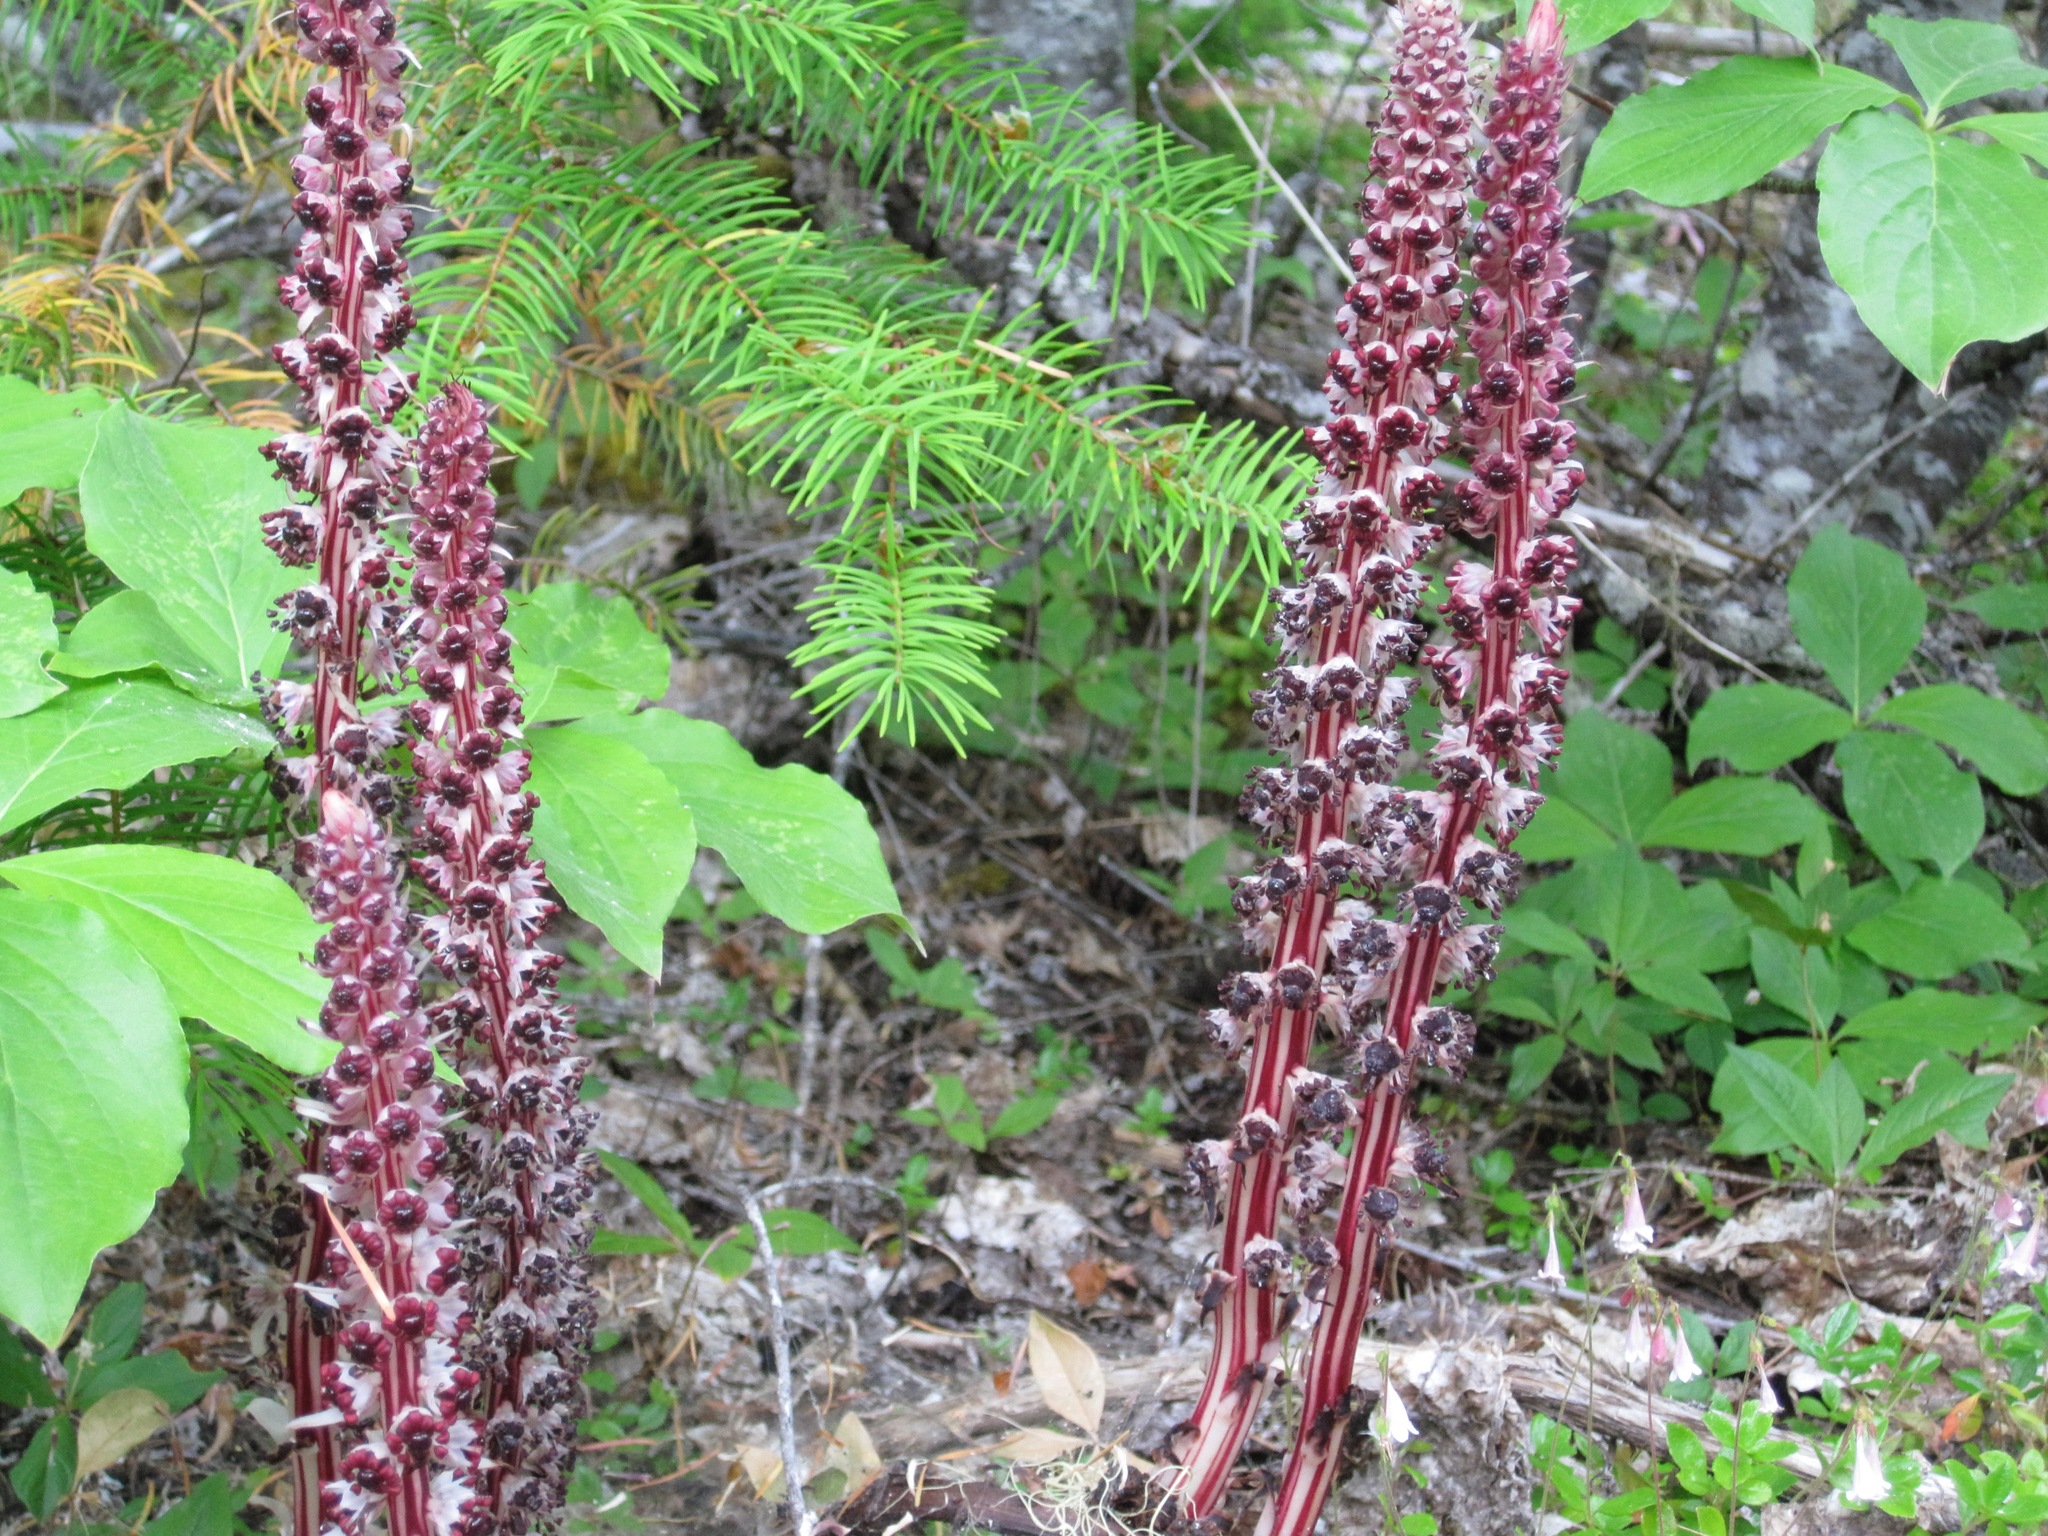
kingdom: Plantae
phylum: Tracheophyta
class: Magnoliopsida
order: Ericales
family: Ericaceae
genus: Allotropa
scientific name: Allotropa virgata
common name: Candy-striped allotropa
